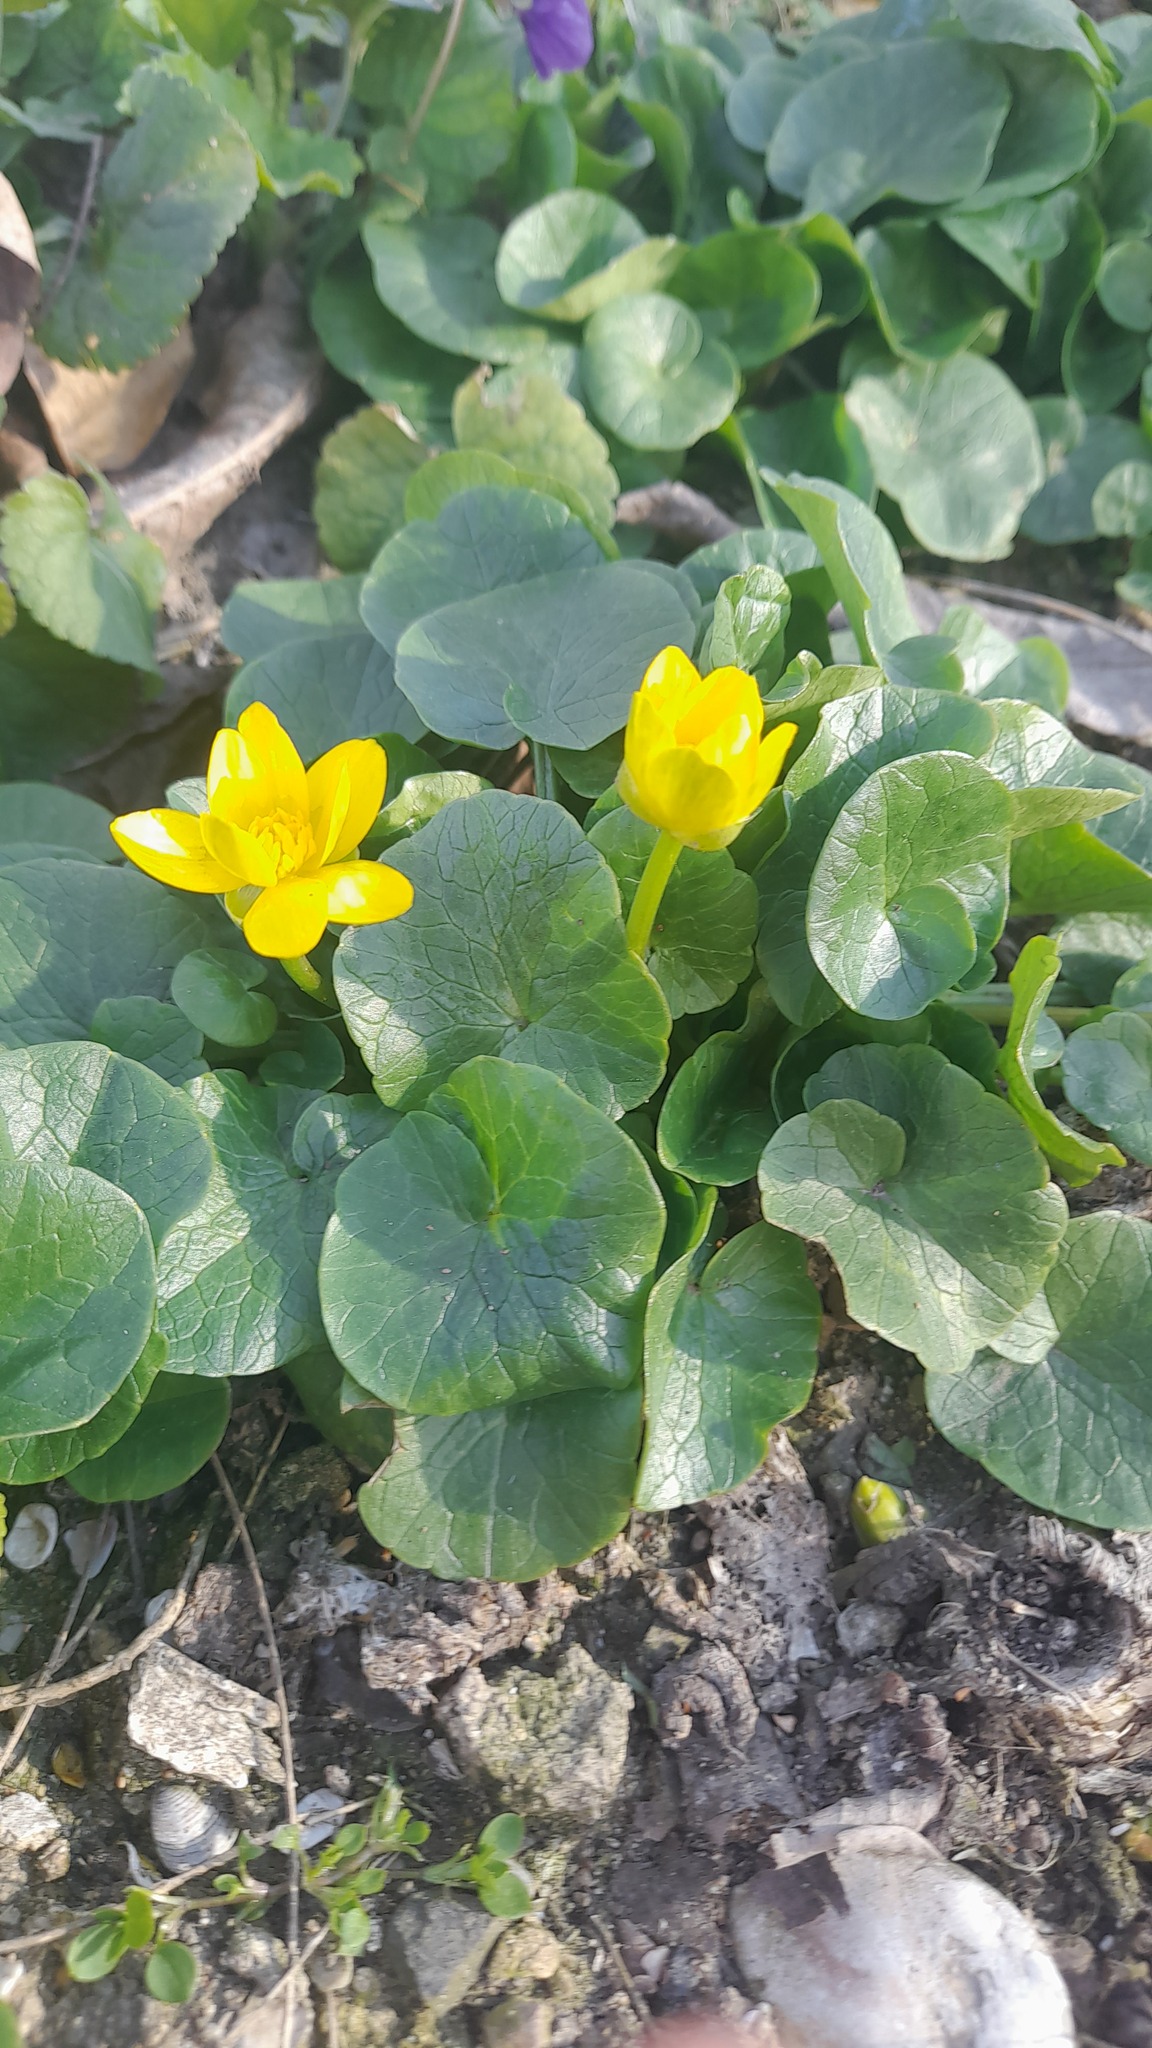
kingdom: Plantae
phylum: Tracheophyta
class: Magnoliopsida
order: Ranunculales
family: Ranunculaceae
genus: Ficaria
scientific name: Ficaria verna
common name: Lesser celandine
